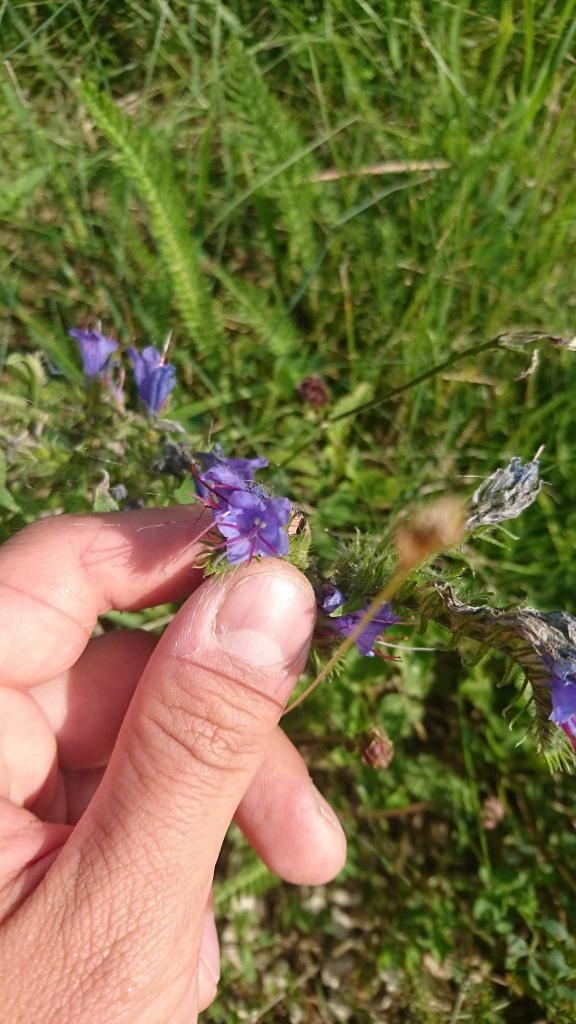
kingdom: Plantae
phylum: Tracheophyta
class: Magnoliopsida
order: Boraginales
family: Boraginaceae
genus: Echium
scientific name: Echium vulgare
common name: Common viper's bugloss
